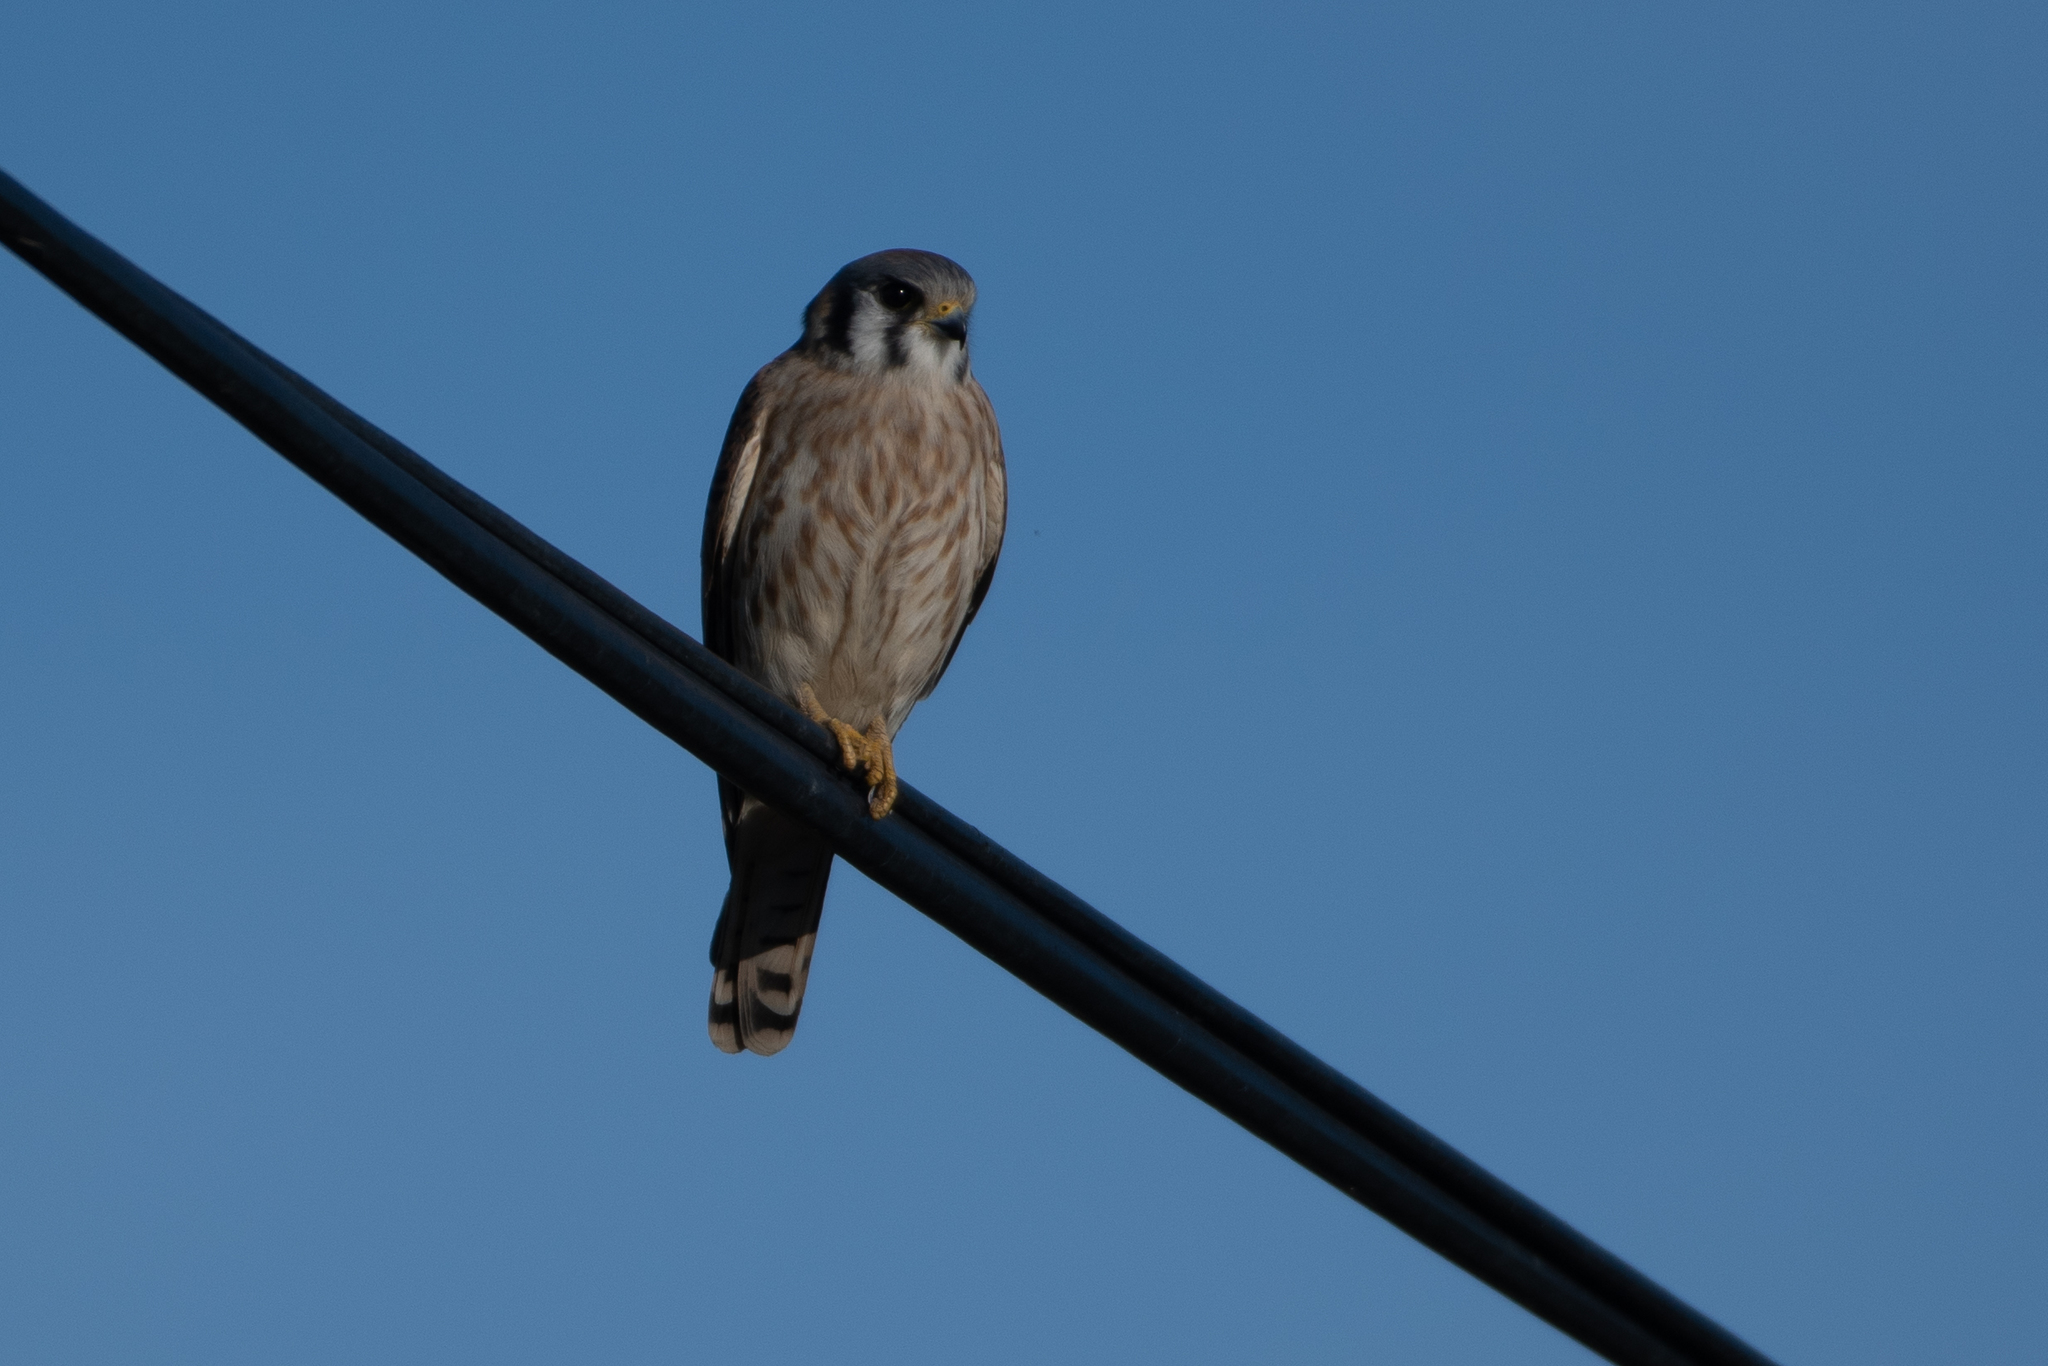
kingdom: Animalia
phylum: Chordata
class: Aves
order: Falconiformes
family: Falconidae
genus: Falco
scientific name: Falco sparverius
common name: American kestrel
